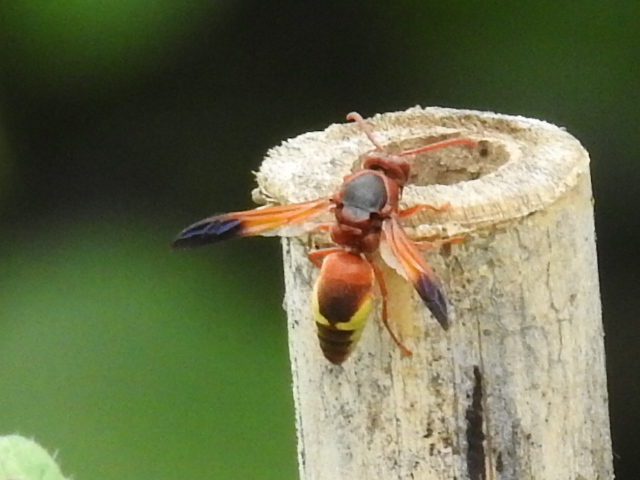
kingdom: Animalia
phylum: Arthropoda
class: Insecta
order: Hymenoptera
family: Eumenidae
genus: Rhynchium
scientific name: Rhynchium oculatum
